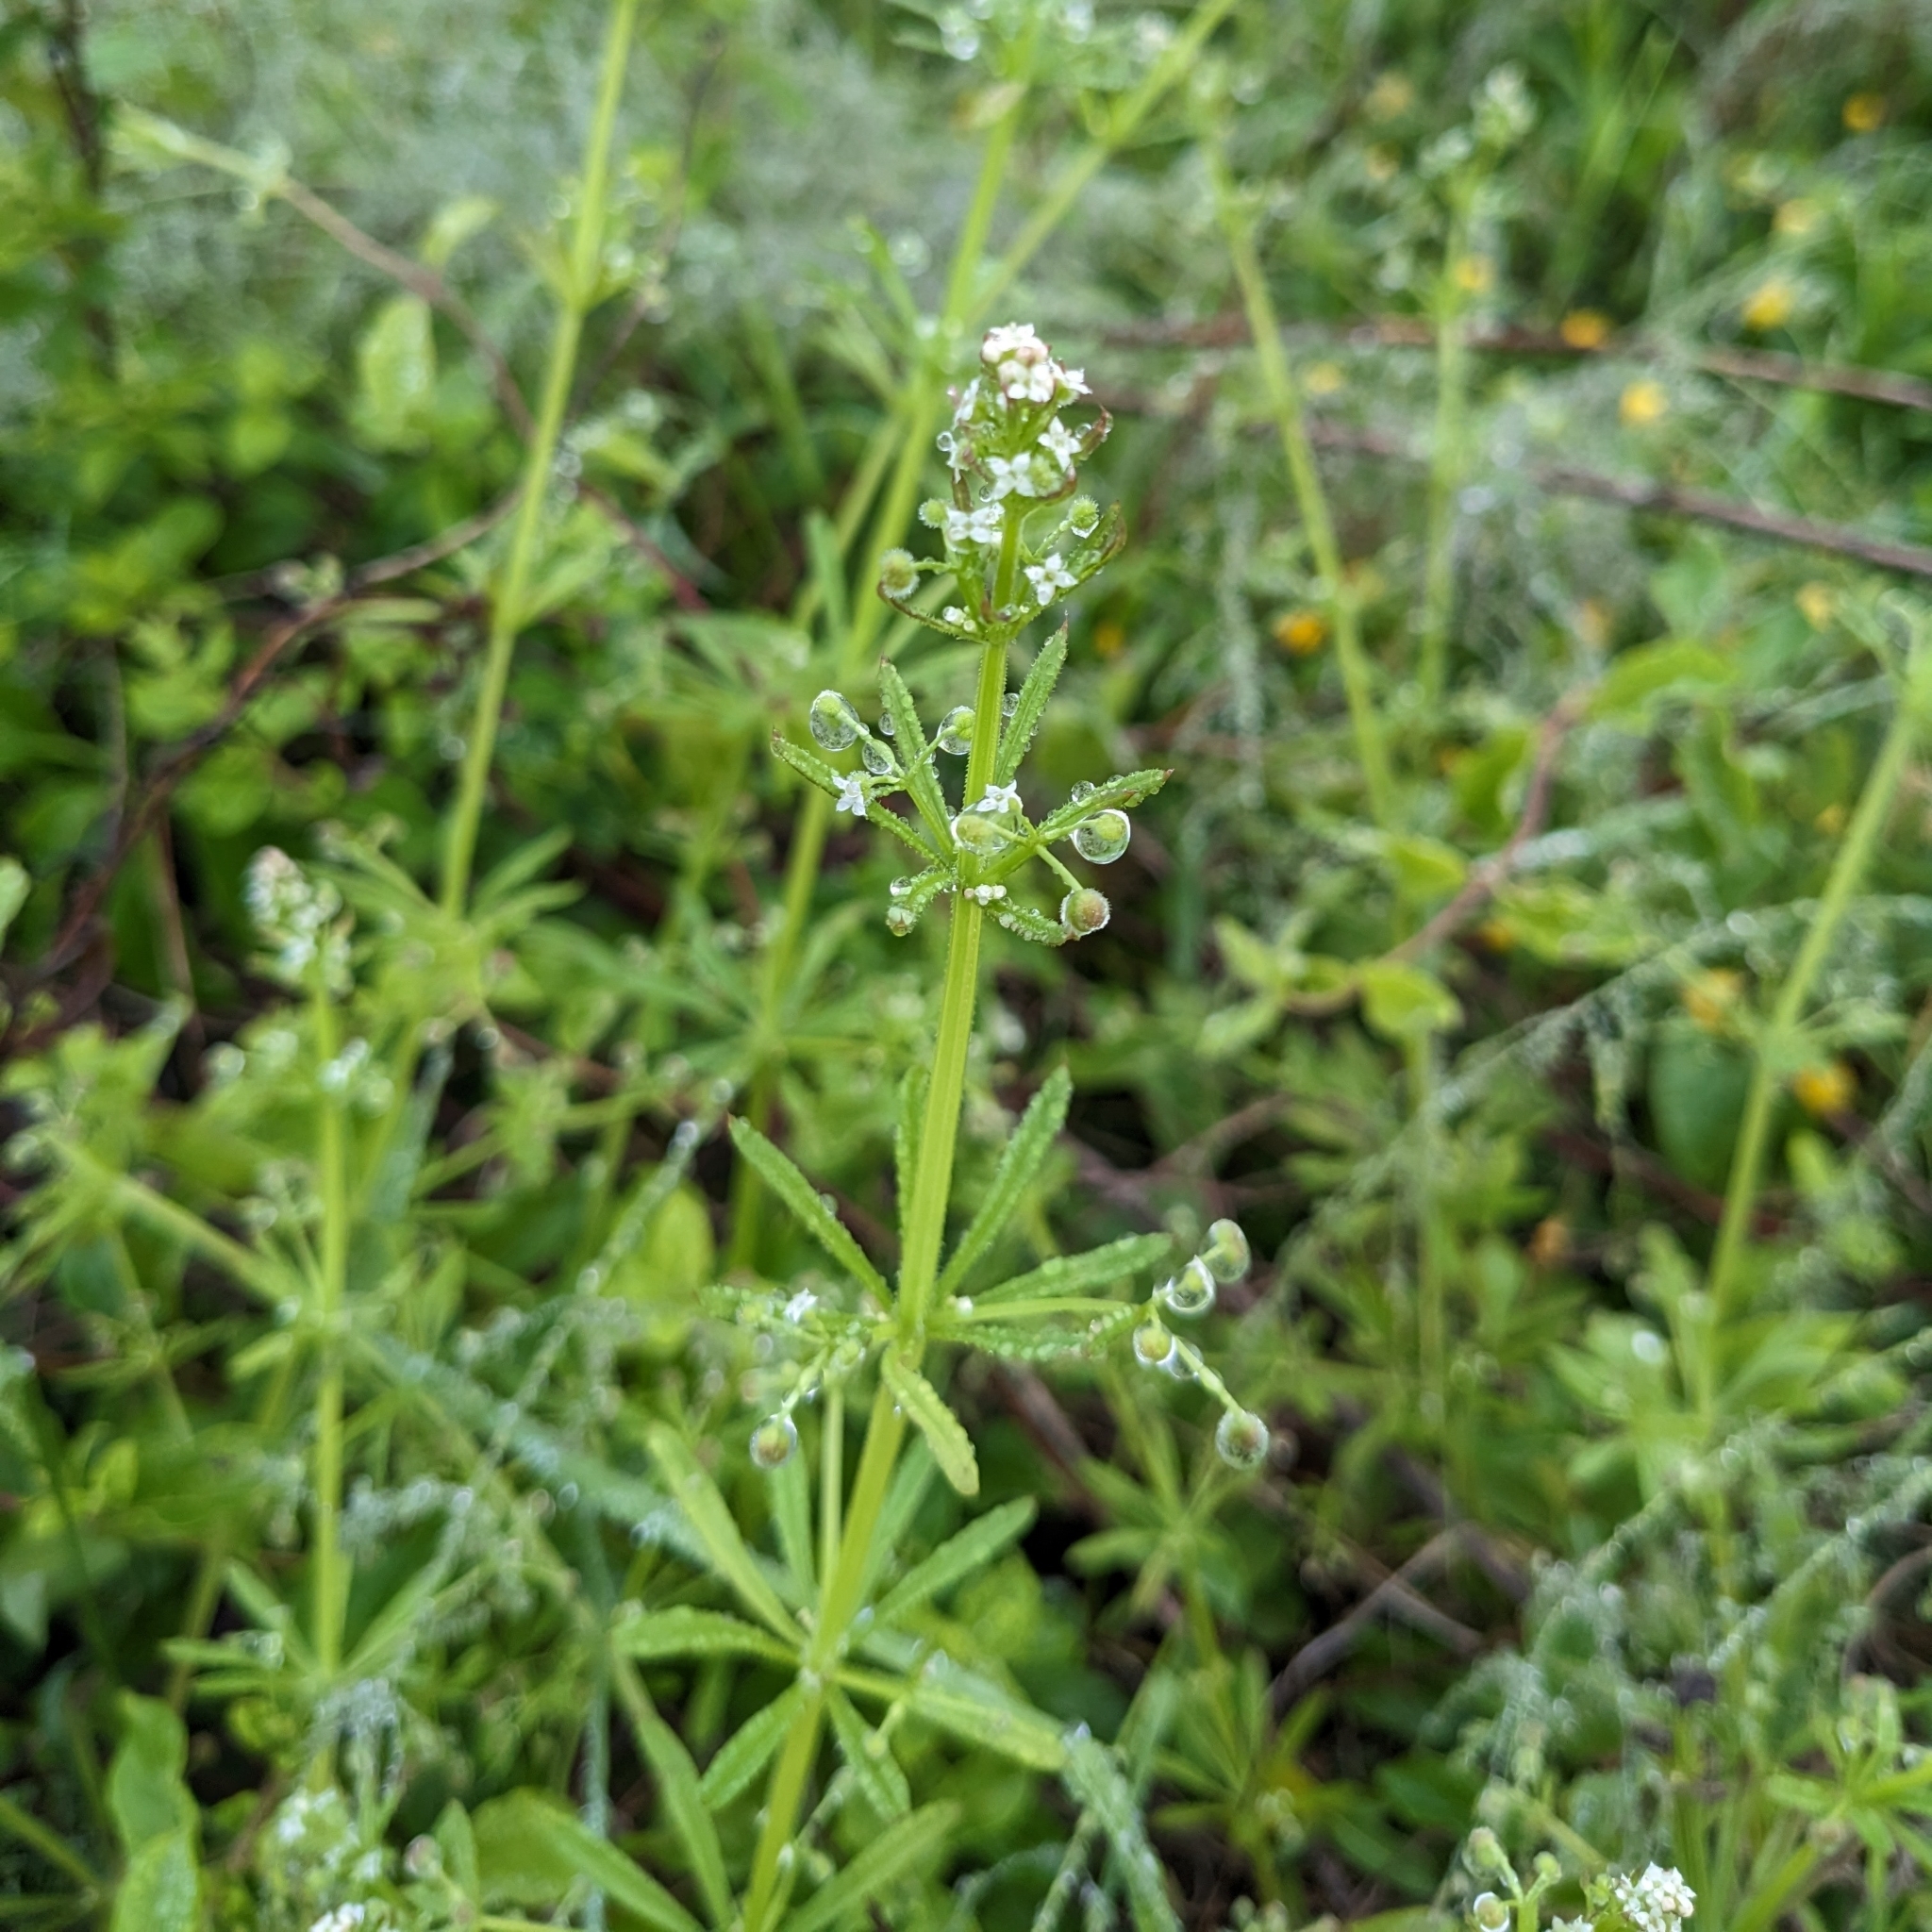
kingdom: Plantae
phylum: Tracheophyta
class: Magnoliopsida
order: Gentianales
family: Rubiaceae
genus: Galium
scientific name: Galium aparine
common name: Cleavers
